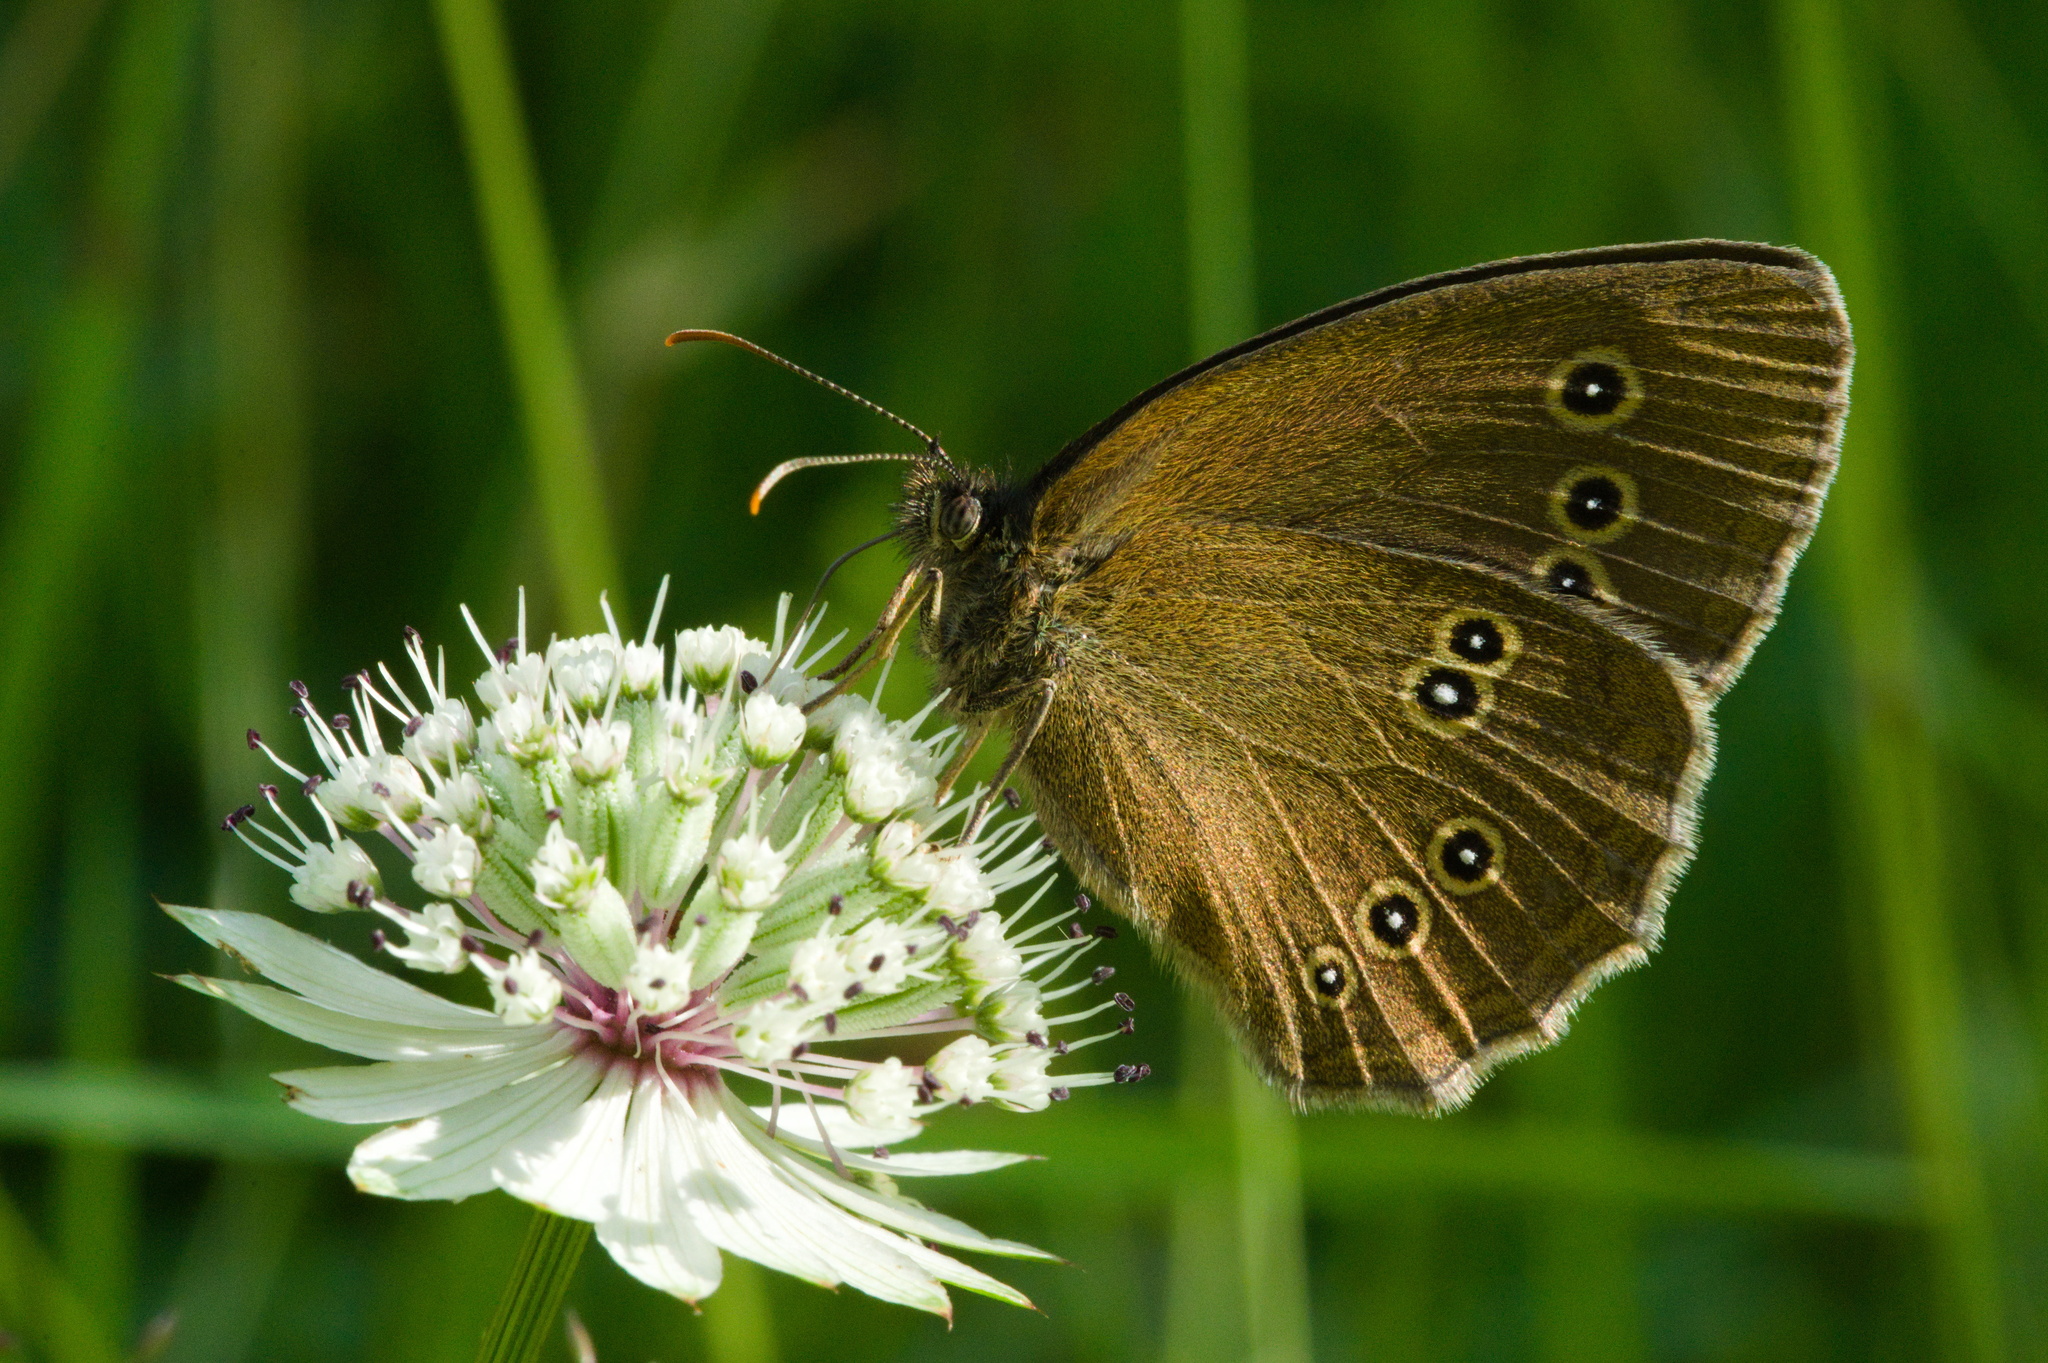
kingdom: Animalia
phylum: Arthropoda
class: Insecta
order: Lepidoptera
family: Nymphalidae
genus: Aphantopus
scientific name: Aphantopus hyperantus
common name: Ringlet
